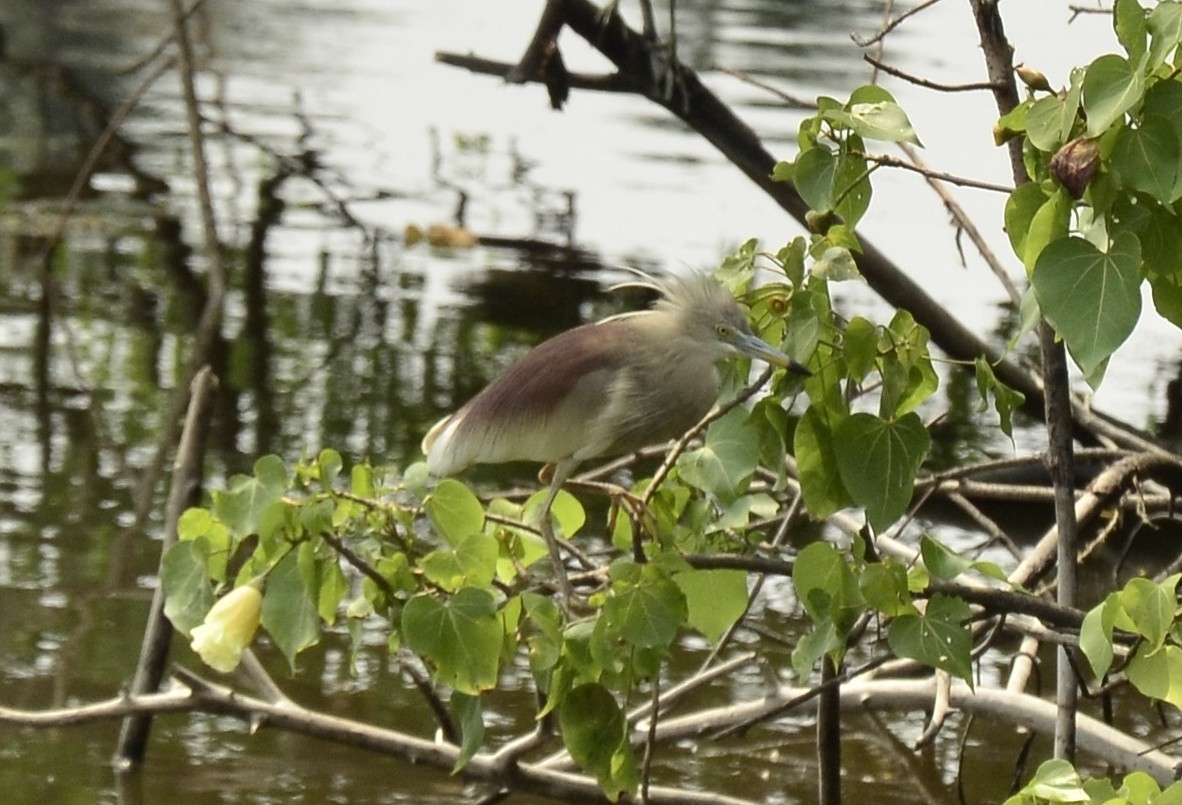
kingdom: Animalia
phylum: Chordata
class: Aves
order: Pelecaniformes
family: Ardeidae
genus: Ardeola
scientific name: Ardeola grayii
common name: Indian pond heron
